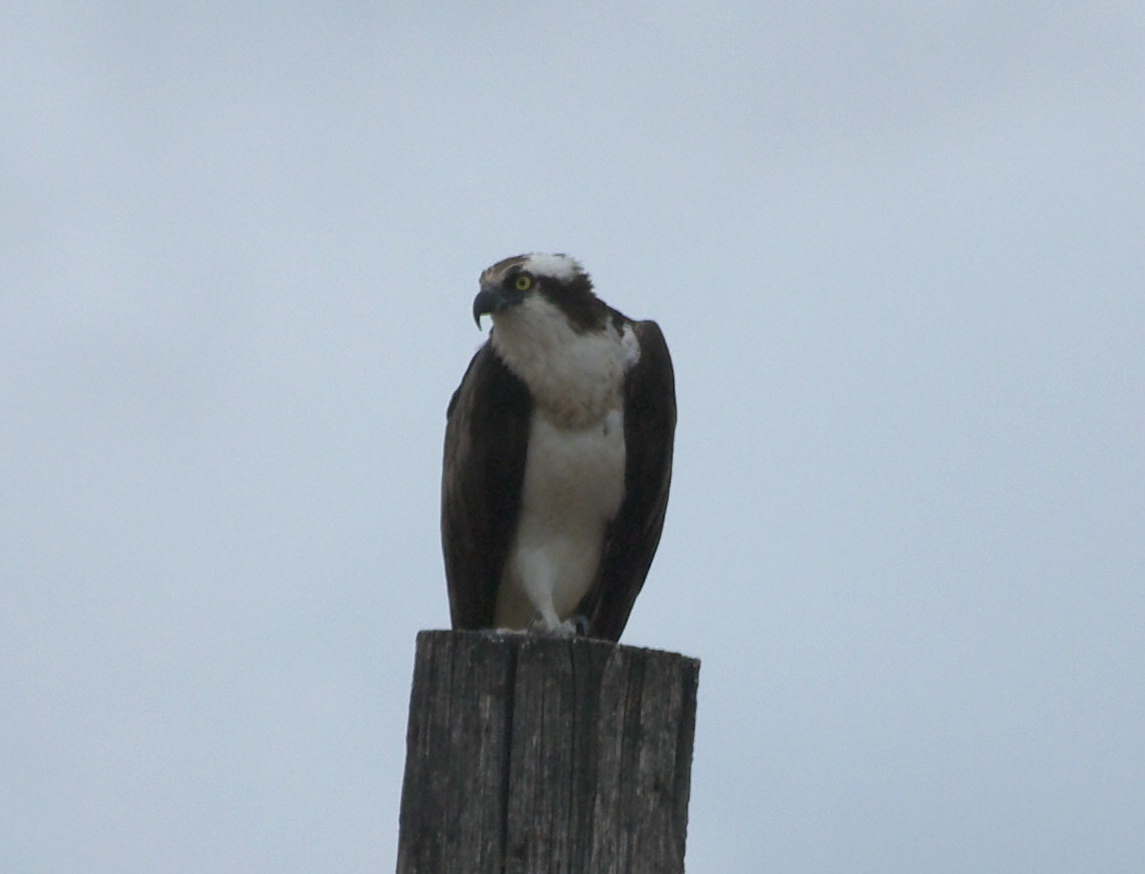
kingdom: Animalia
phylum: Chordata
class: Aves
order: Accipitriformes
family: Pandionidae
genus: Pandion
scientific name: Pandion haliaetus
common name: Osprey
